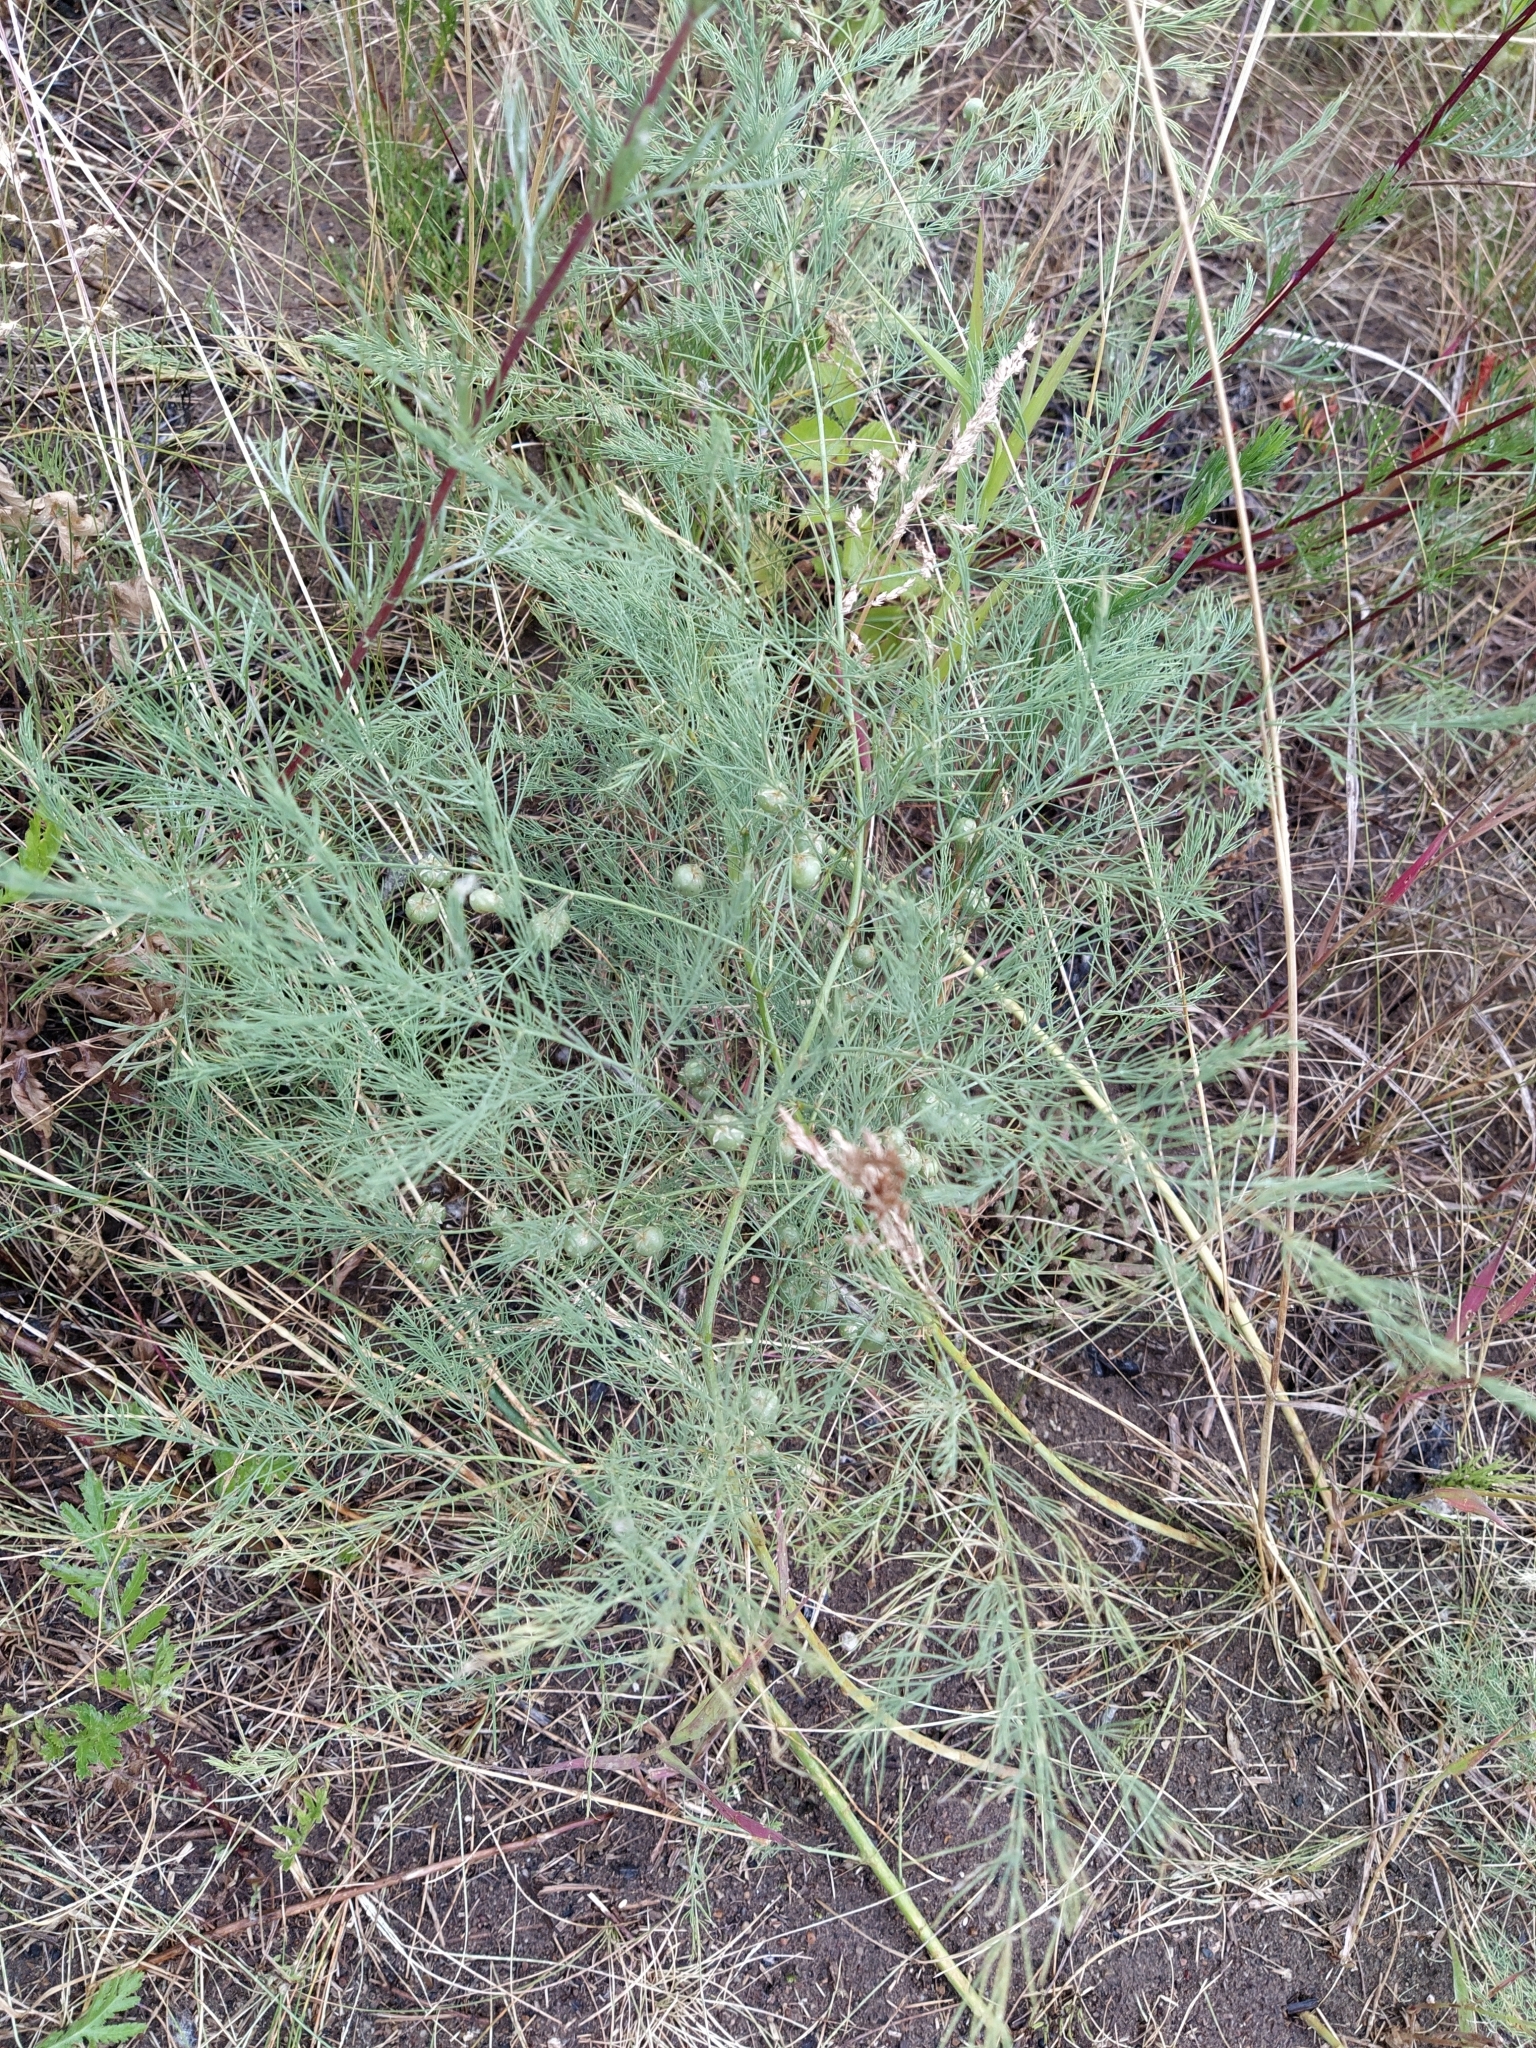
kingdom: Plantae
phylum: Tracheophyta
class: Liliopsida
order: Asparagales
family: Asparagaceae
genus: Asparagus
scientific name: Asparagus officinalis
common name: Garden asparagus
